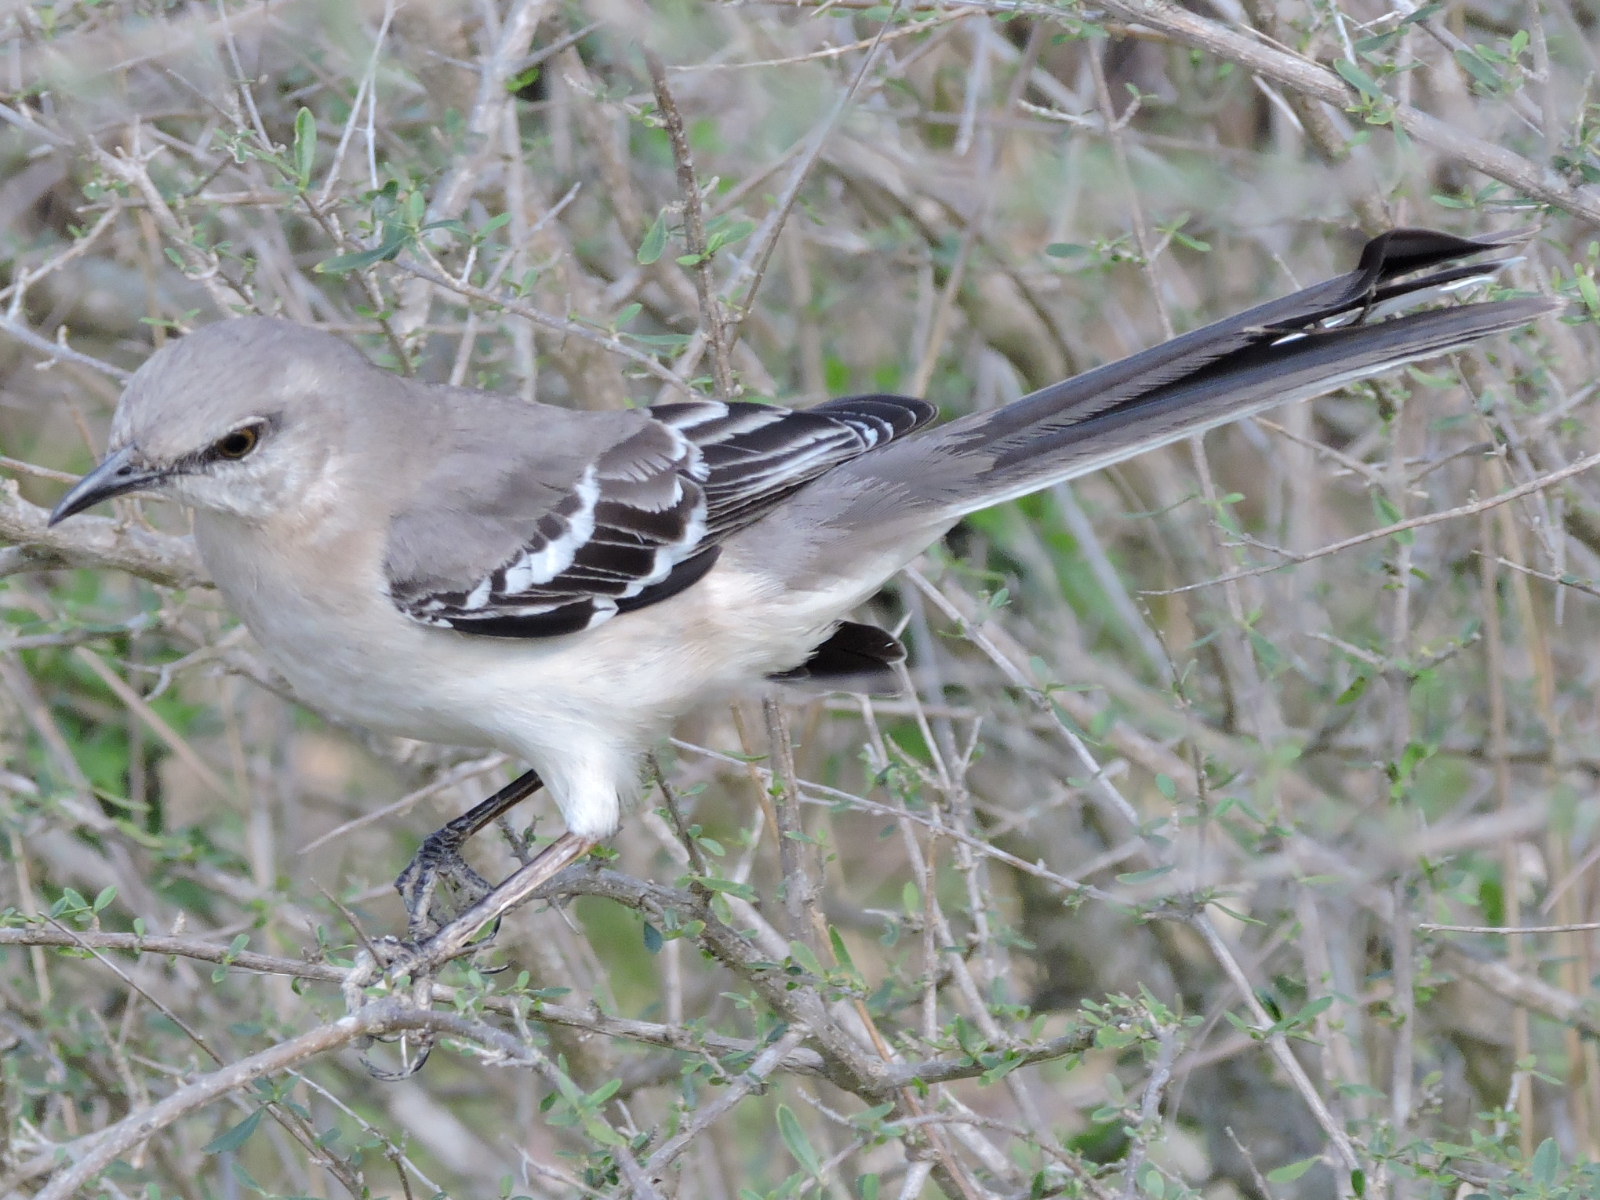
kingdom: Animalia
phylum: Chordata
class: Aves
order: Passeriformes
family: Mimidae
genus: Mimus
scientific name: Mimus polyglottos
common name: Northern mockingbird
